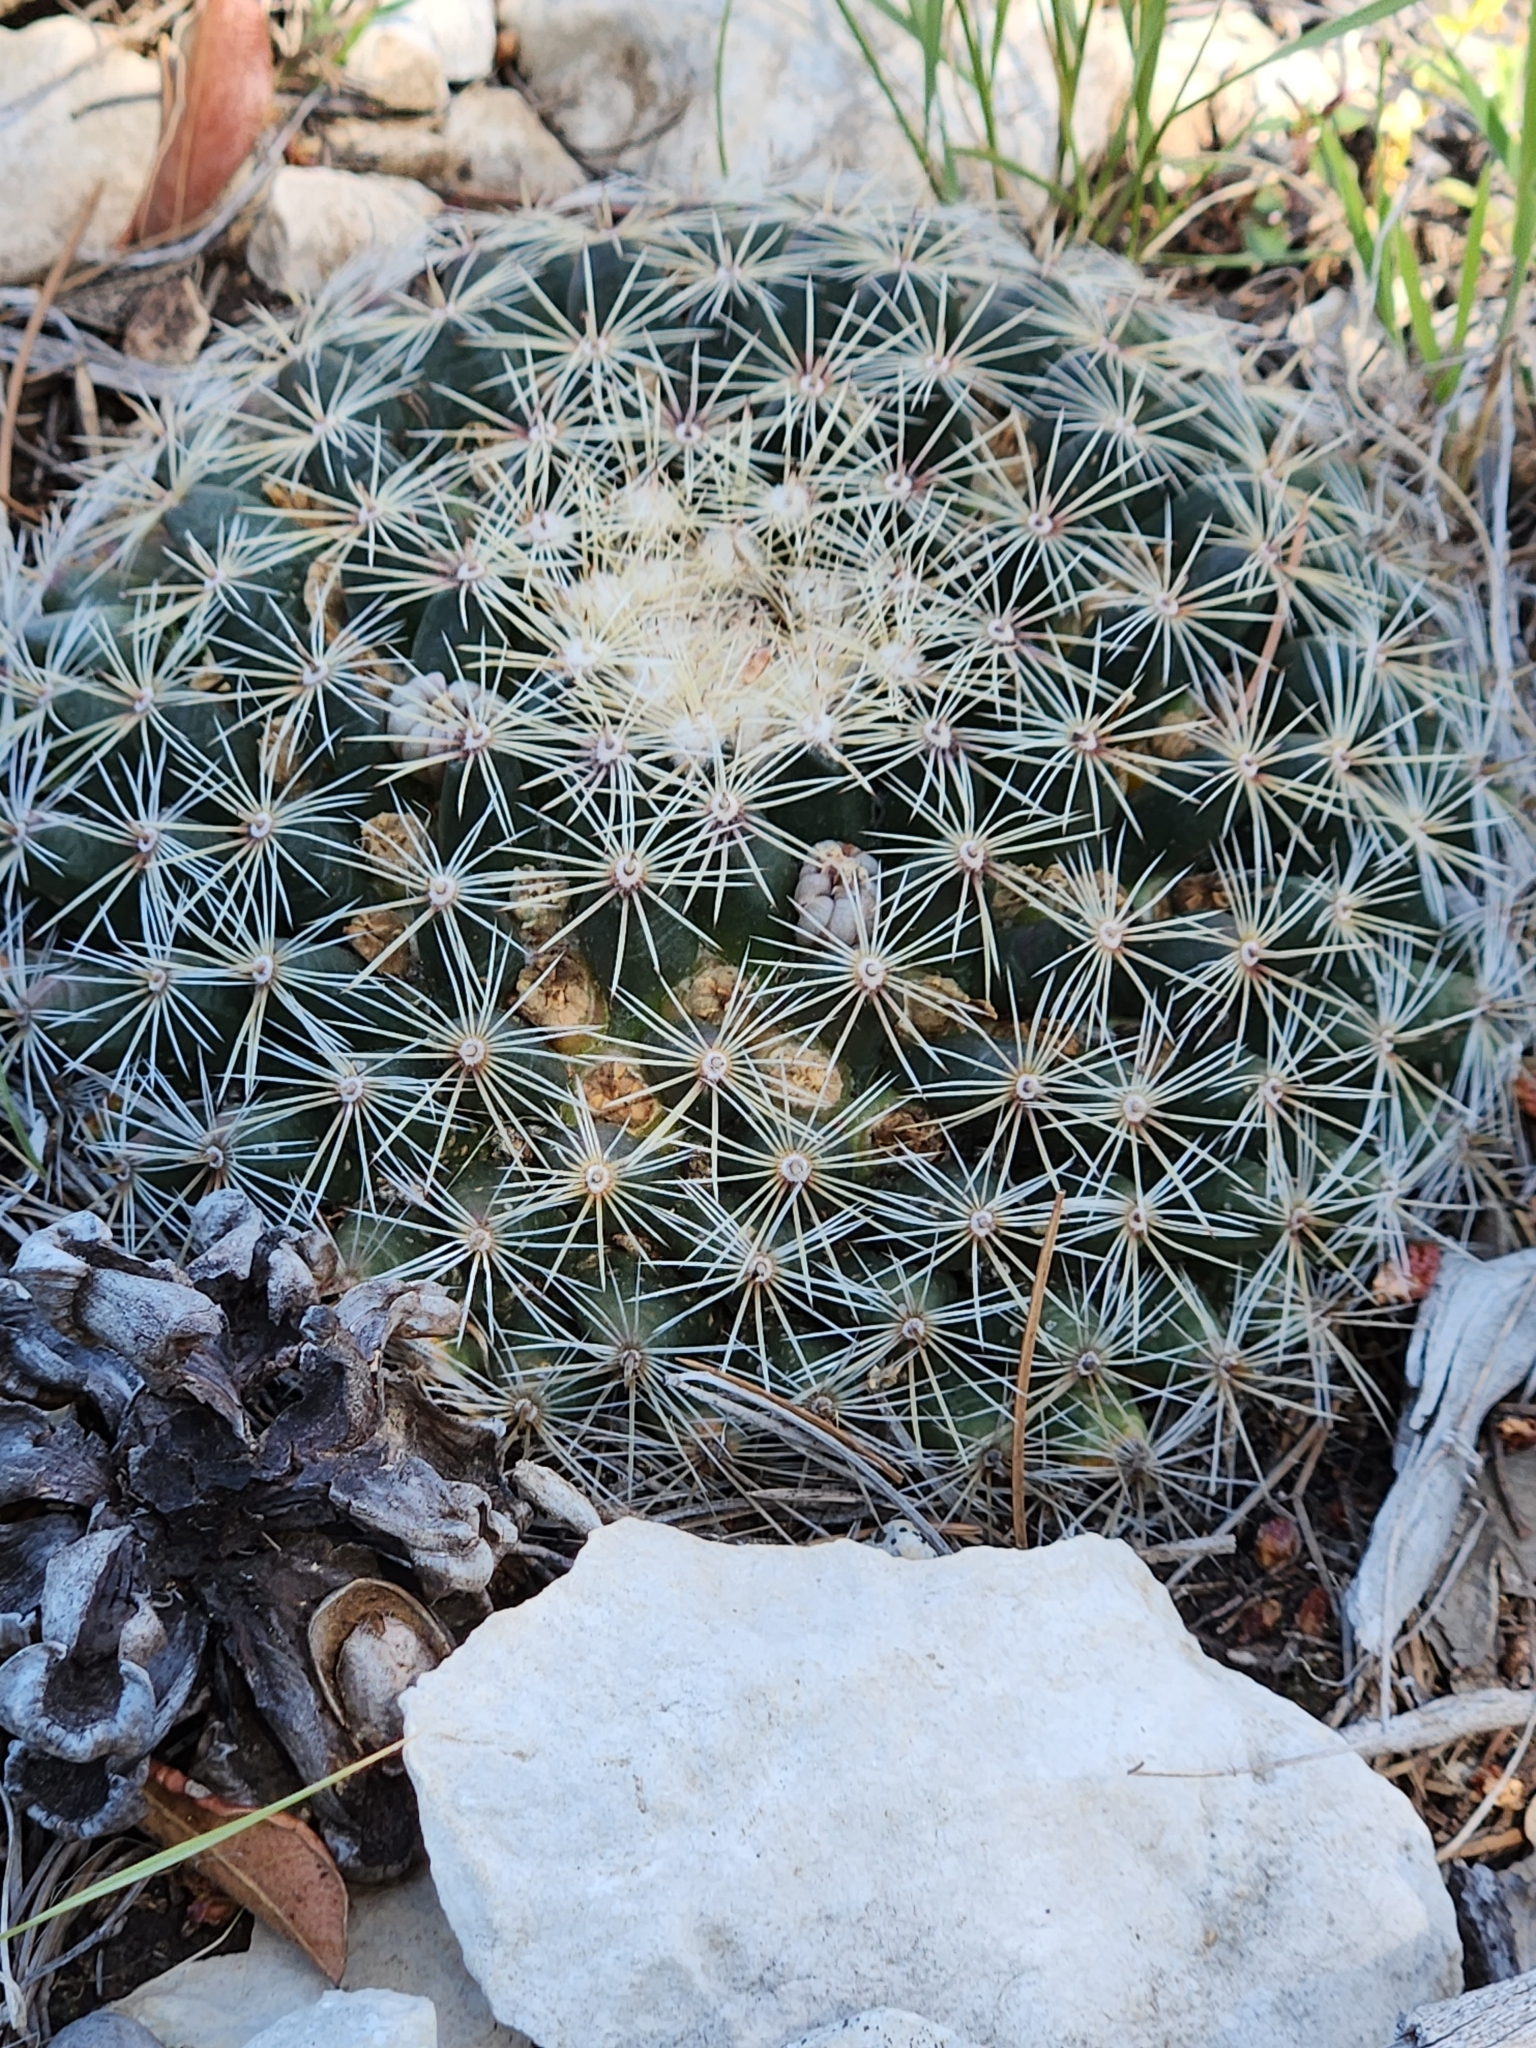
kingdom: Plantae
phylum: Tracheophyta
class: Magnoliopsida
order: Caryophyllales
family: Cactaceae
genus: Mammillaria
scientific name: Mammillaria heyderi
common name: Little nipple cactus
